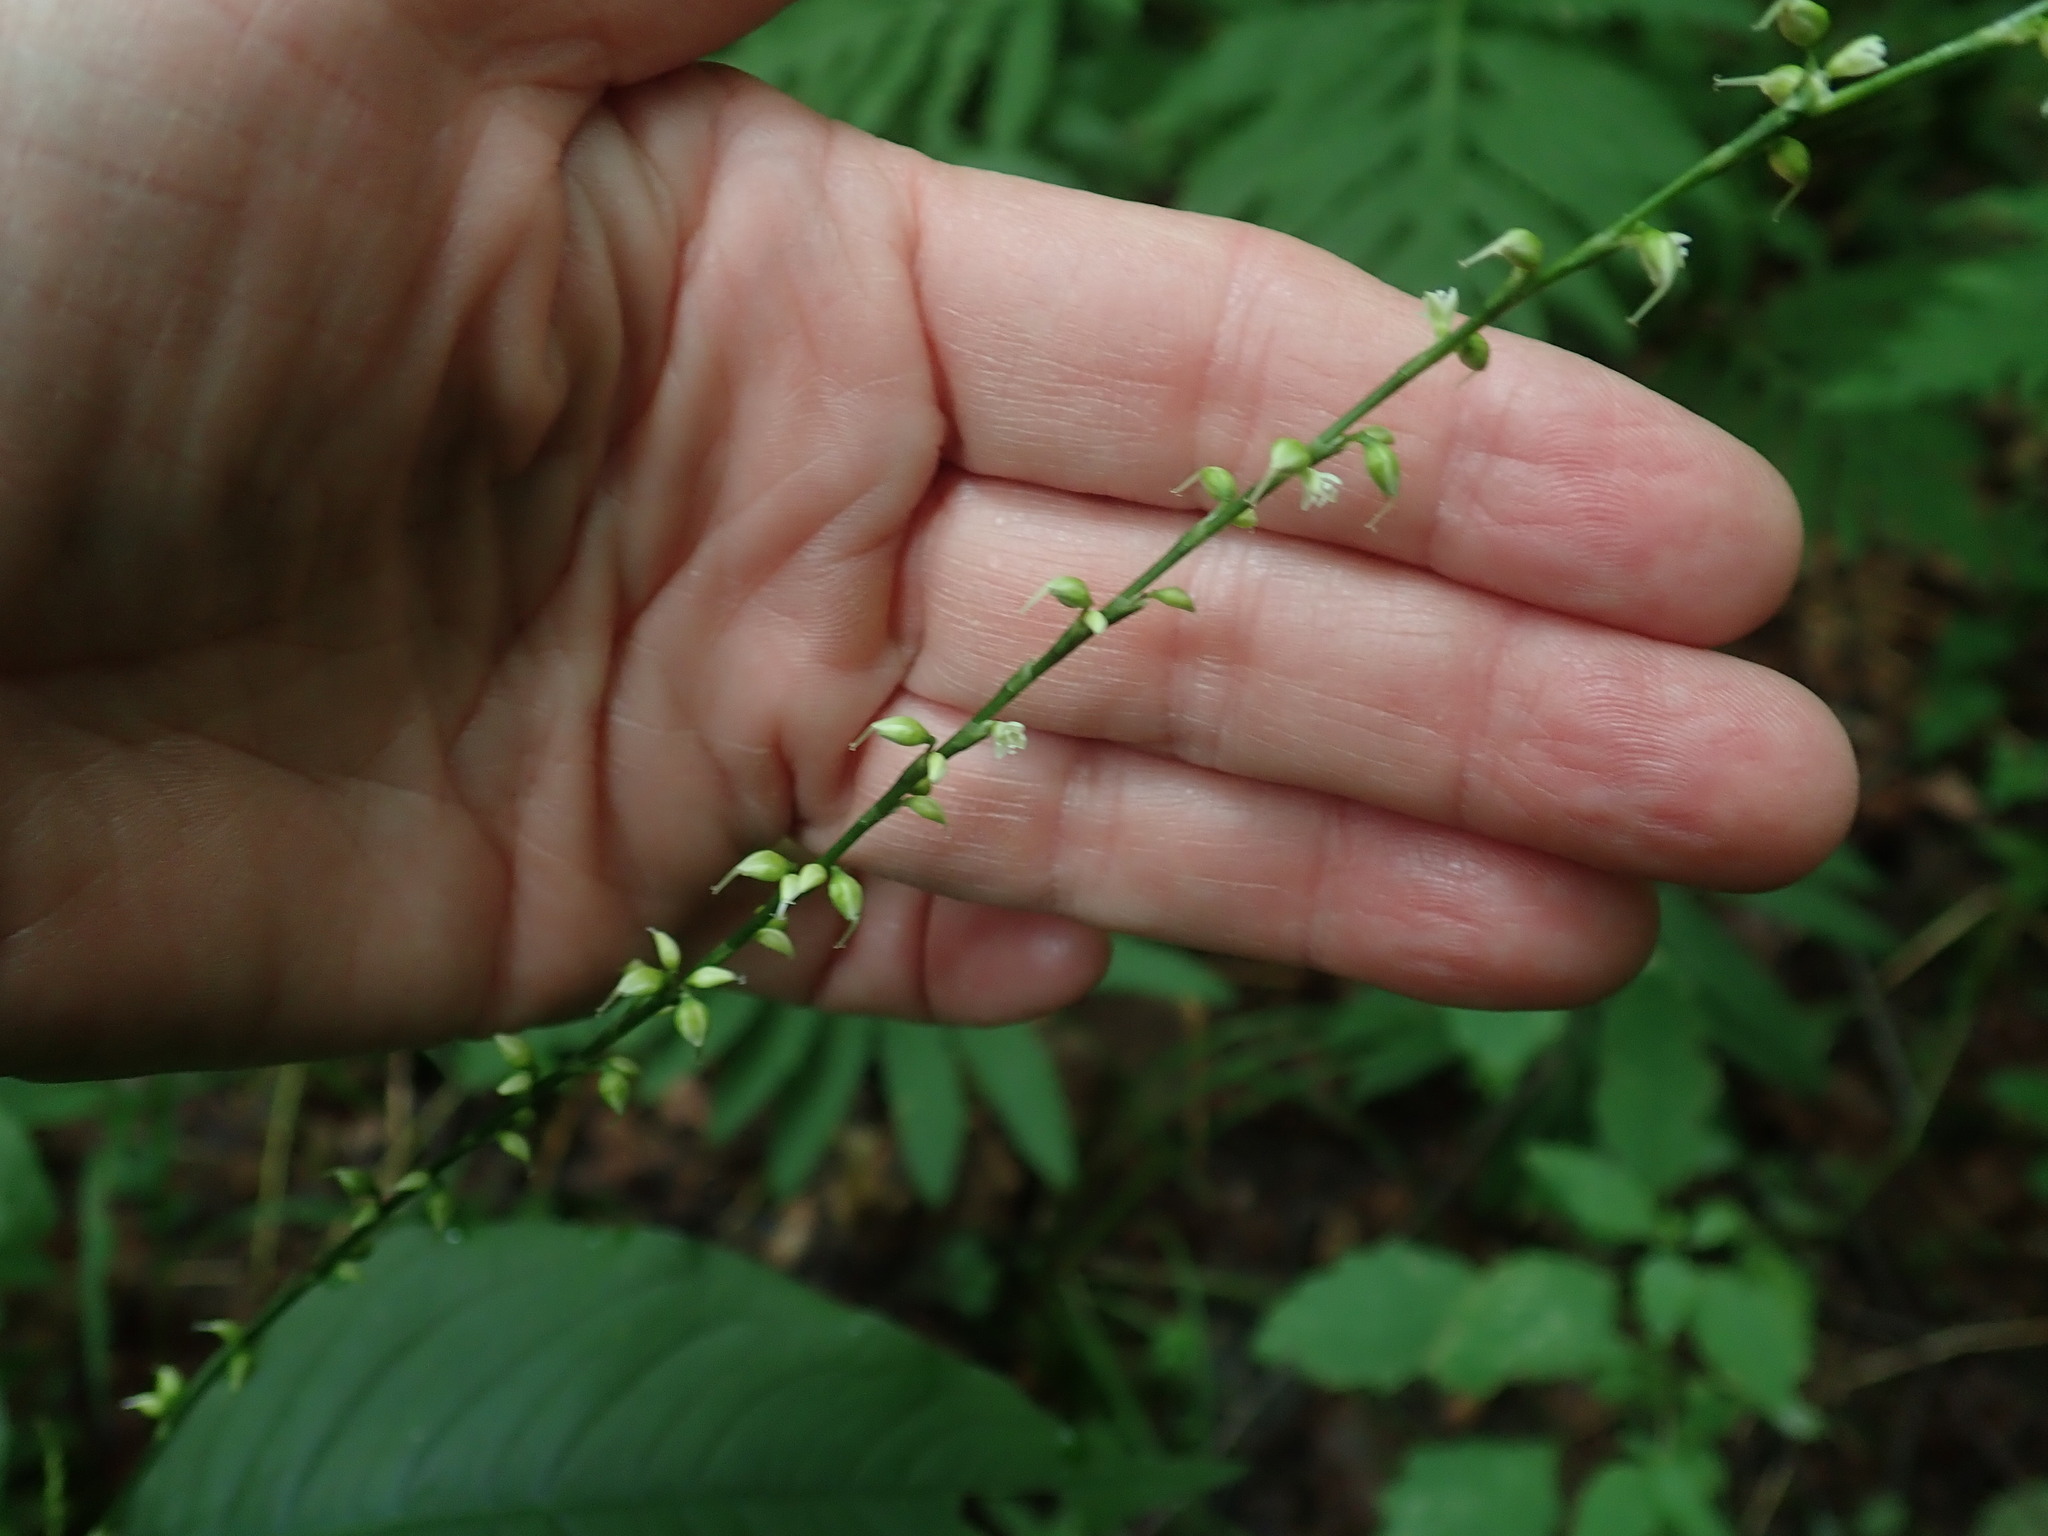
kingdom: Plantae
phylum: Tracheophyta
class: Magnoliopsida
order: Caryophyllales
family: Polygonaceae
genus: Persicaria
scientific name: Persicaria virginiana
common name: Jumpseed
